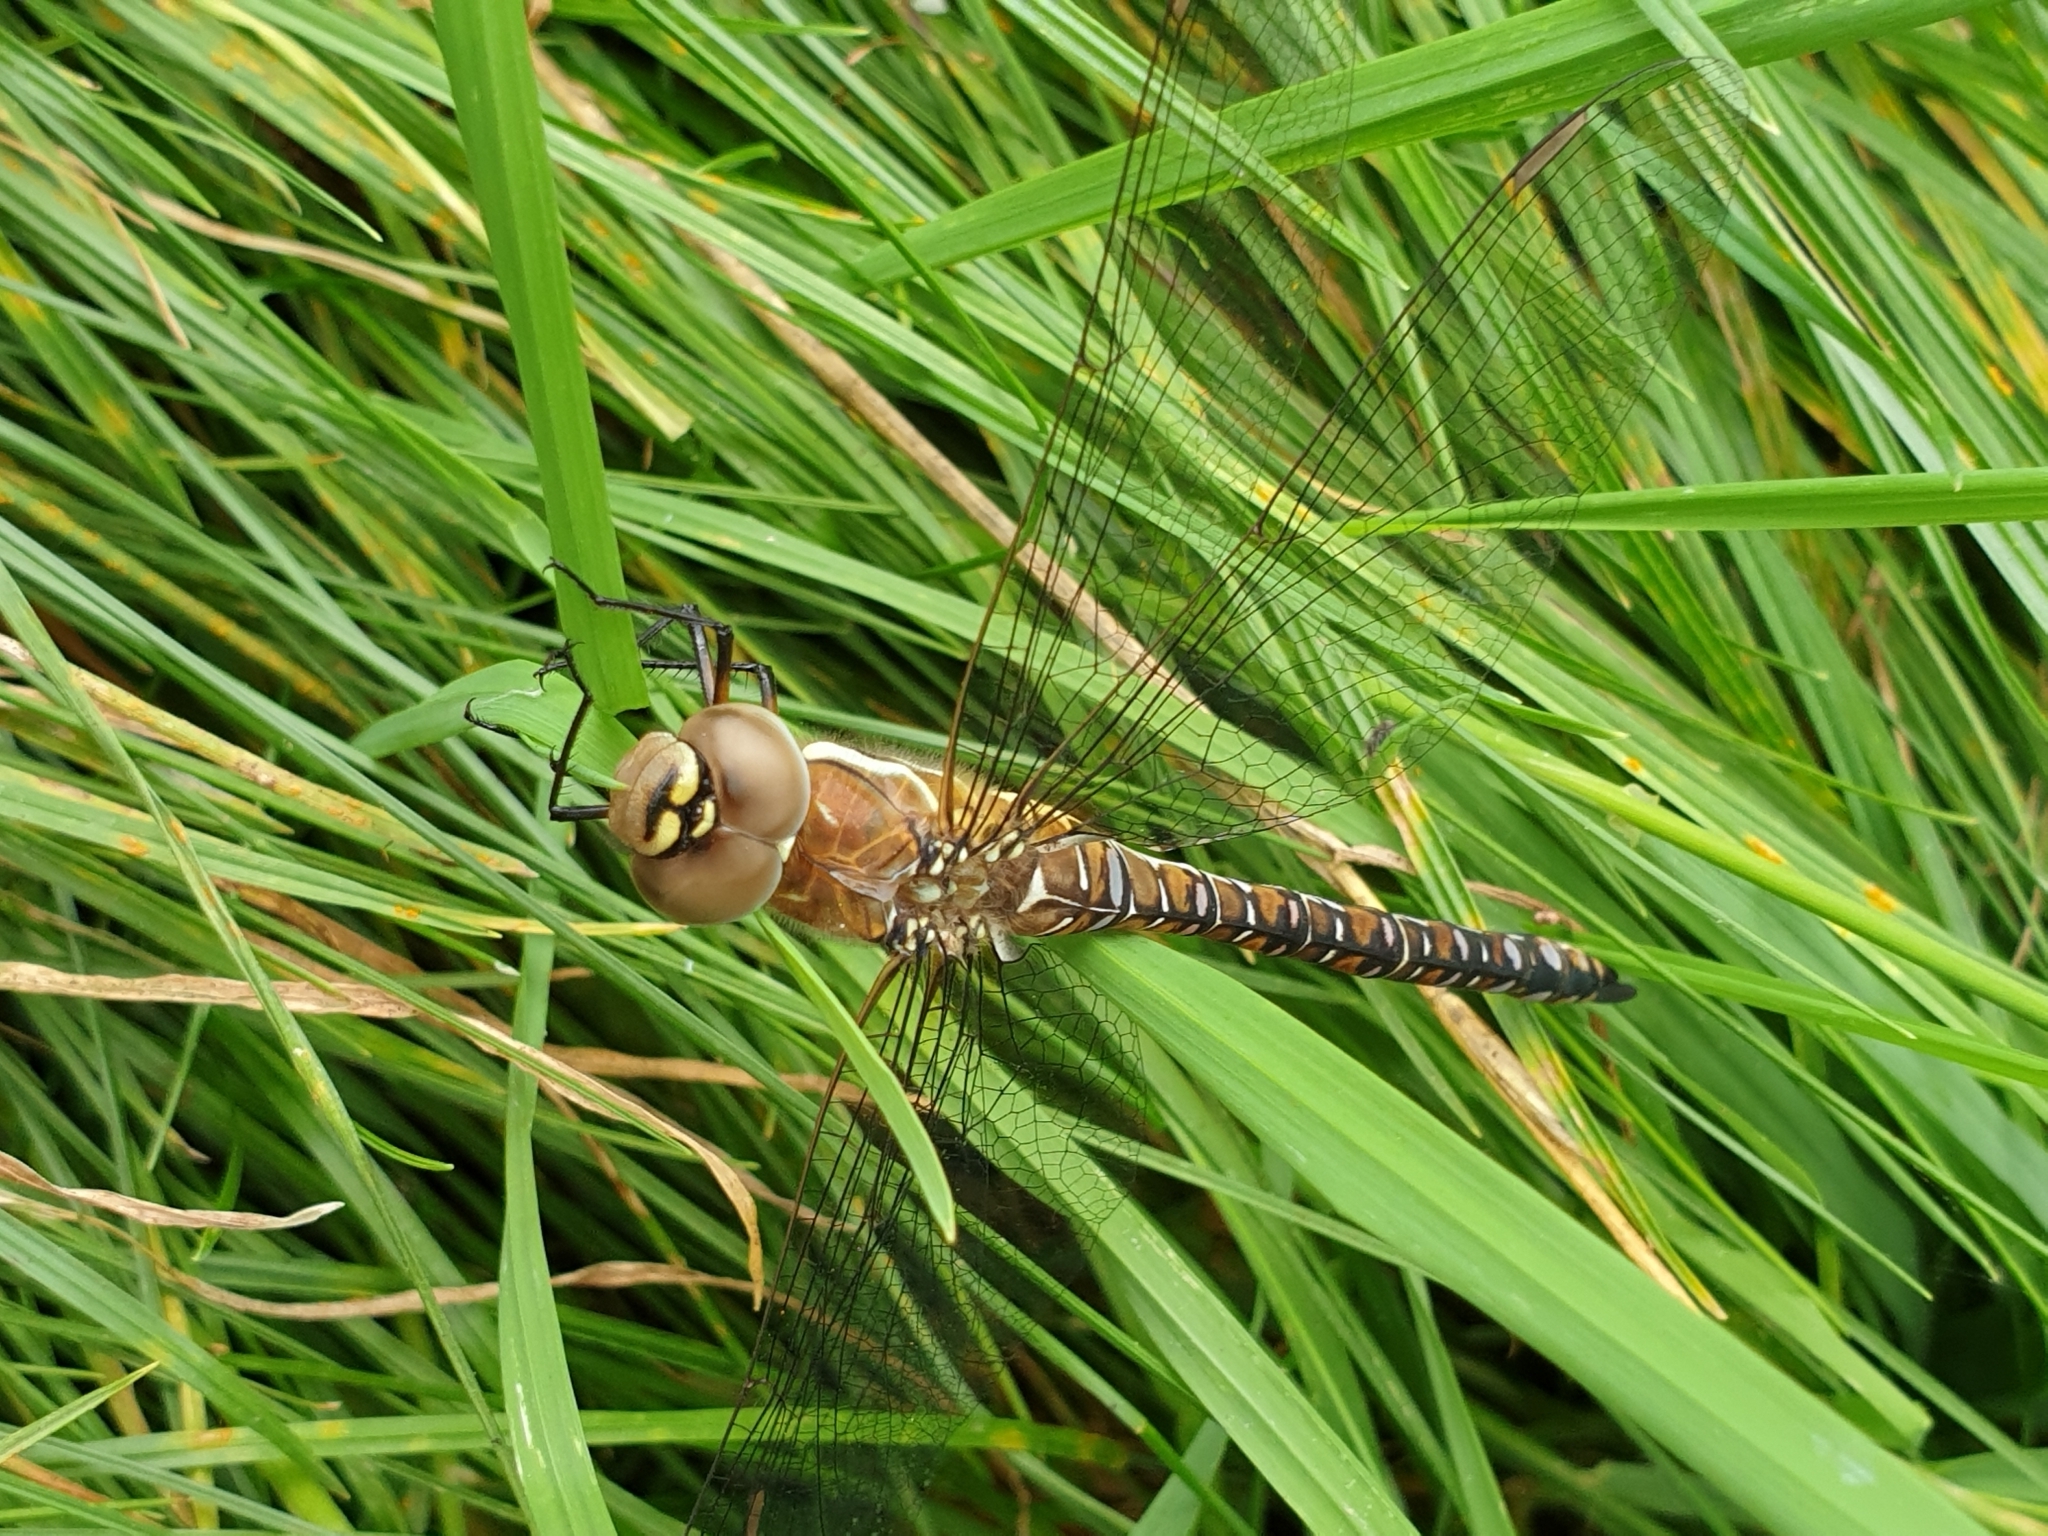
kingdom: Animalia
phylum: Arthropoda
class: Insecta
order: Odonata
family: Aeshnidae
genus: Aeshna
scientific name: Aeshna mixta
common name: Migrant hawker
